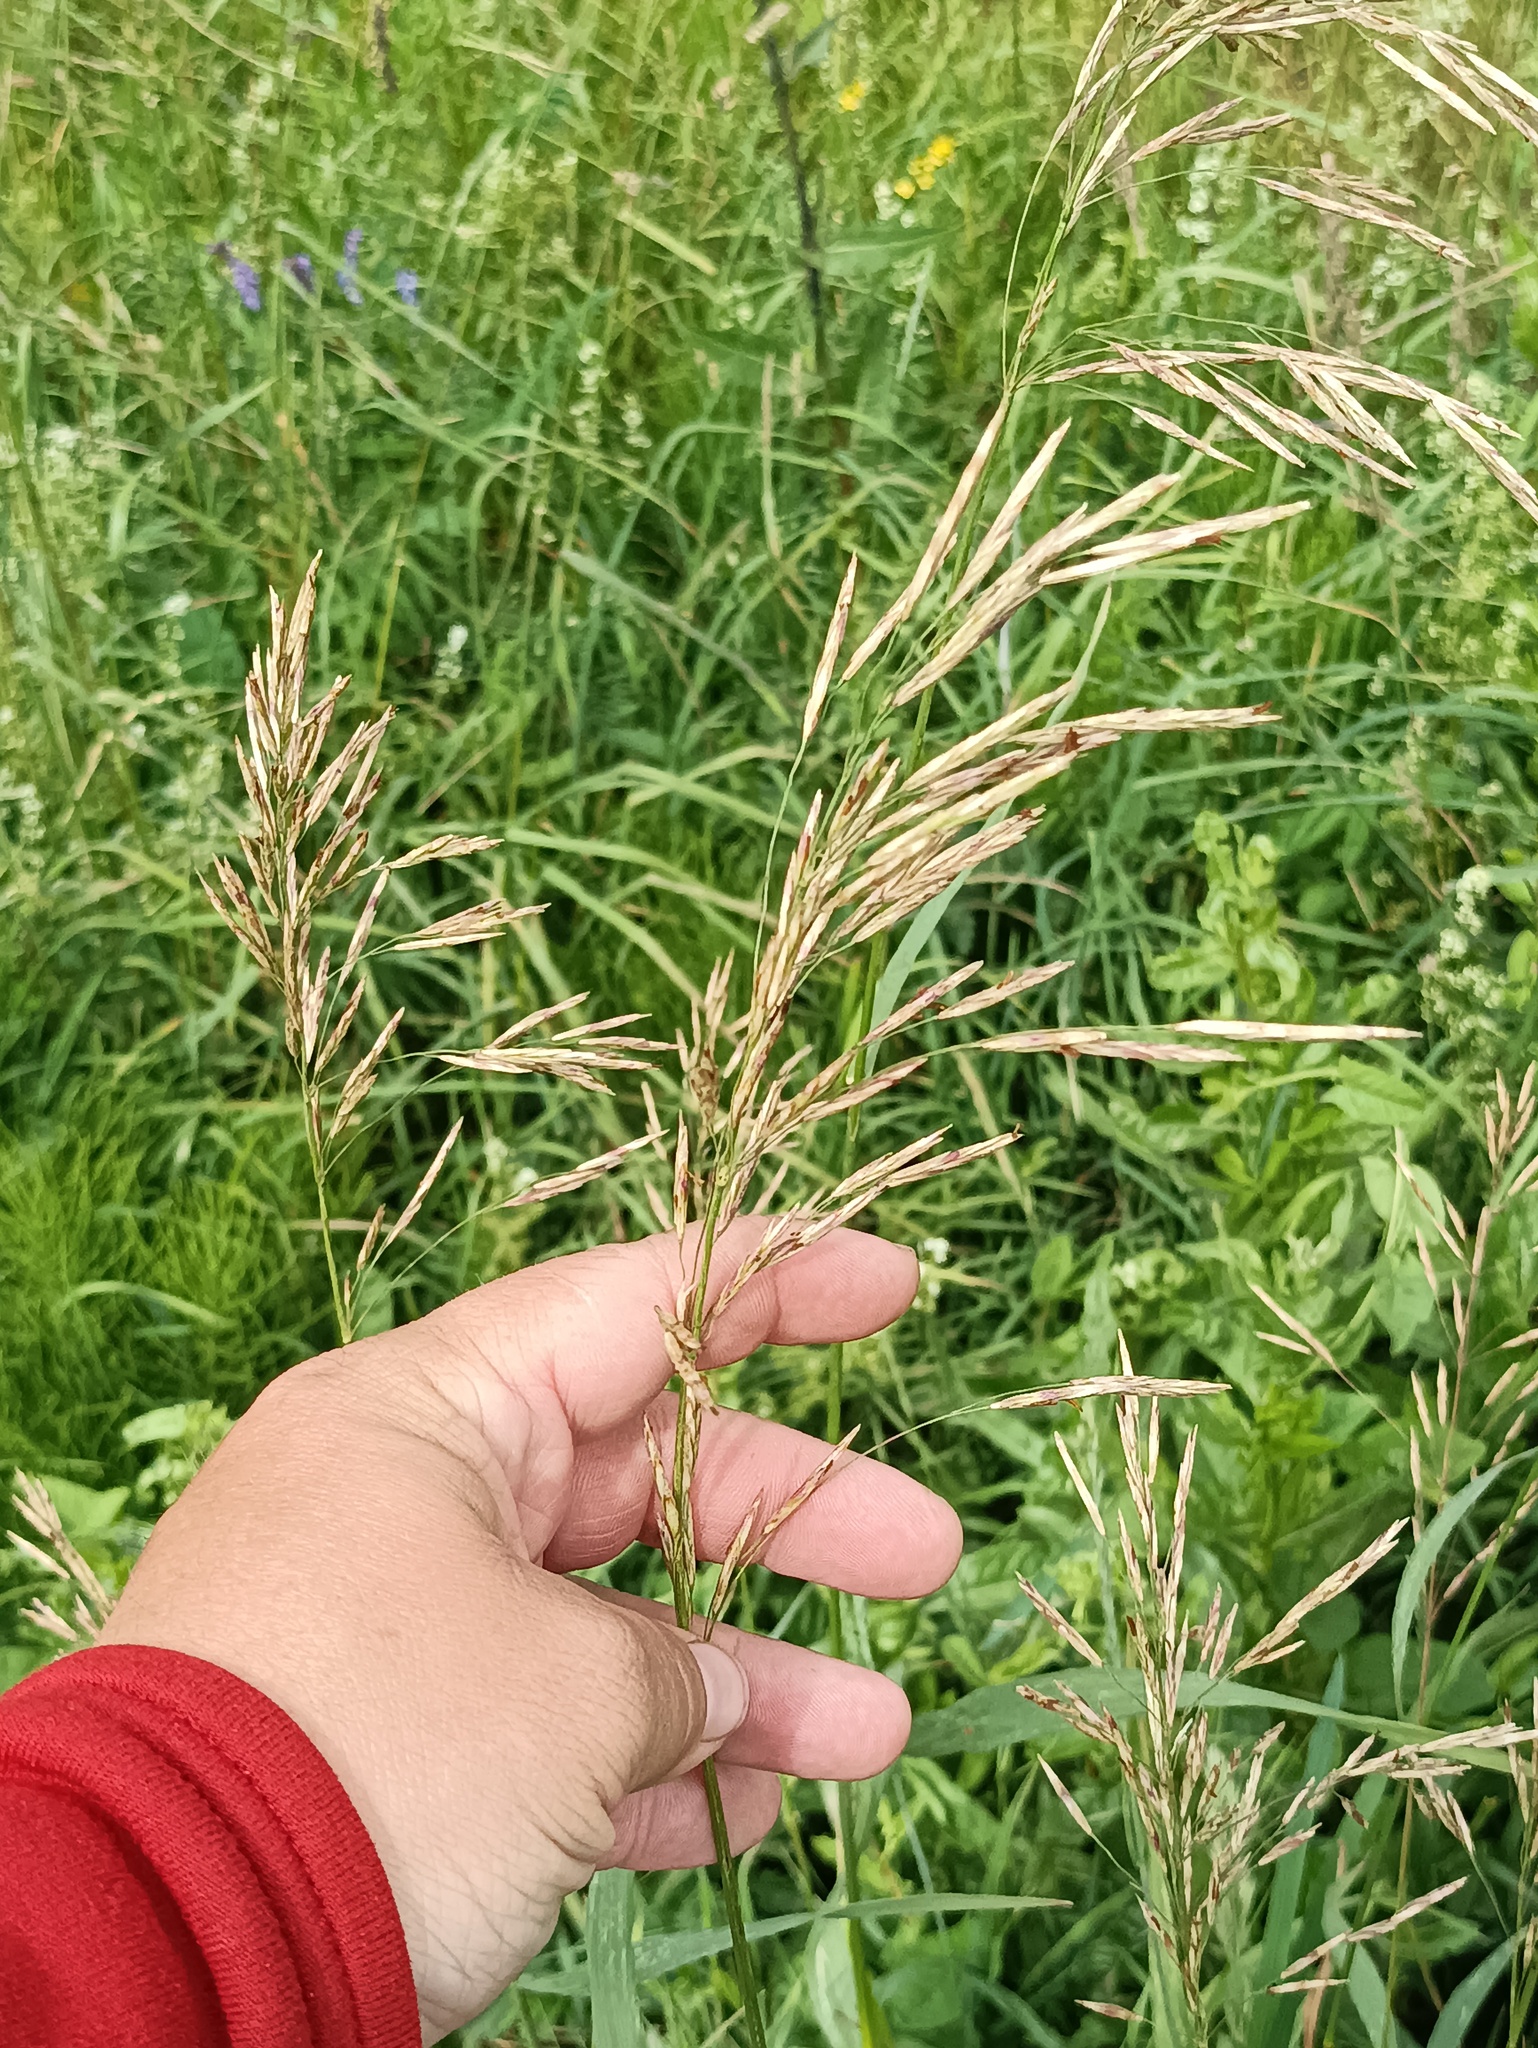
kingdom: Plantae
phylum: Tracheophyta
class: Liliopsida
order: Poales
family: Poaceae
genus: Bromus
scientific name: Bromus inermis
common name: Smooth brome
